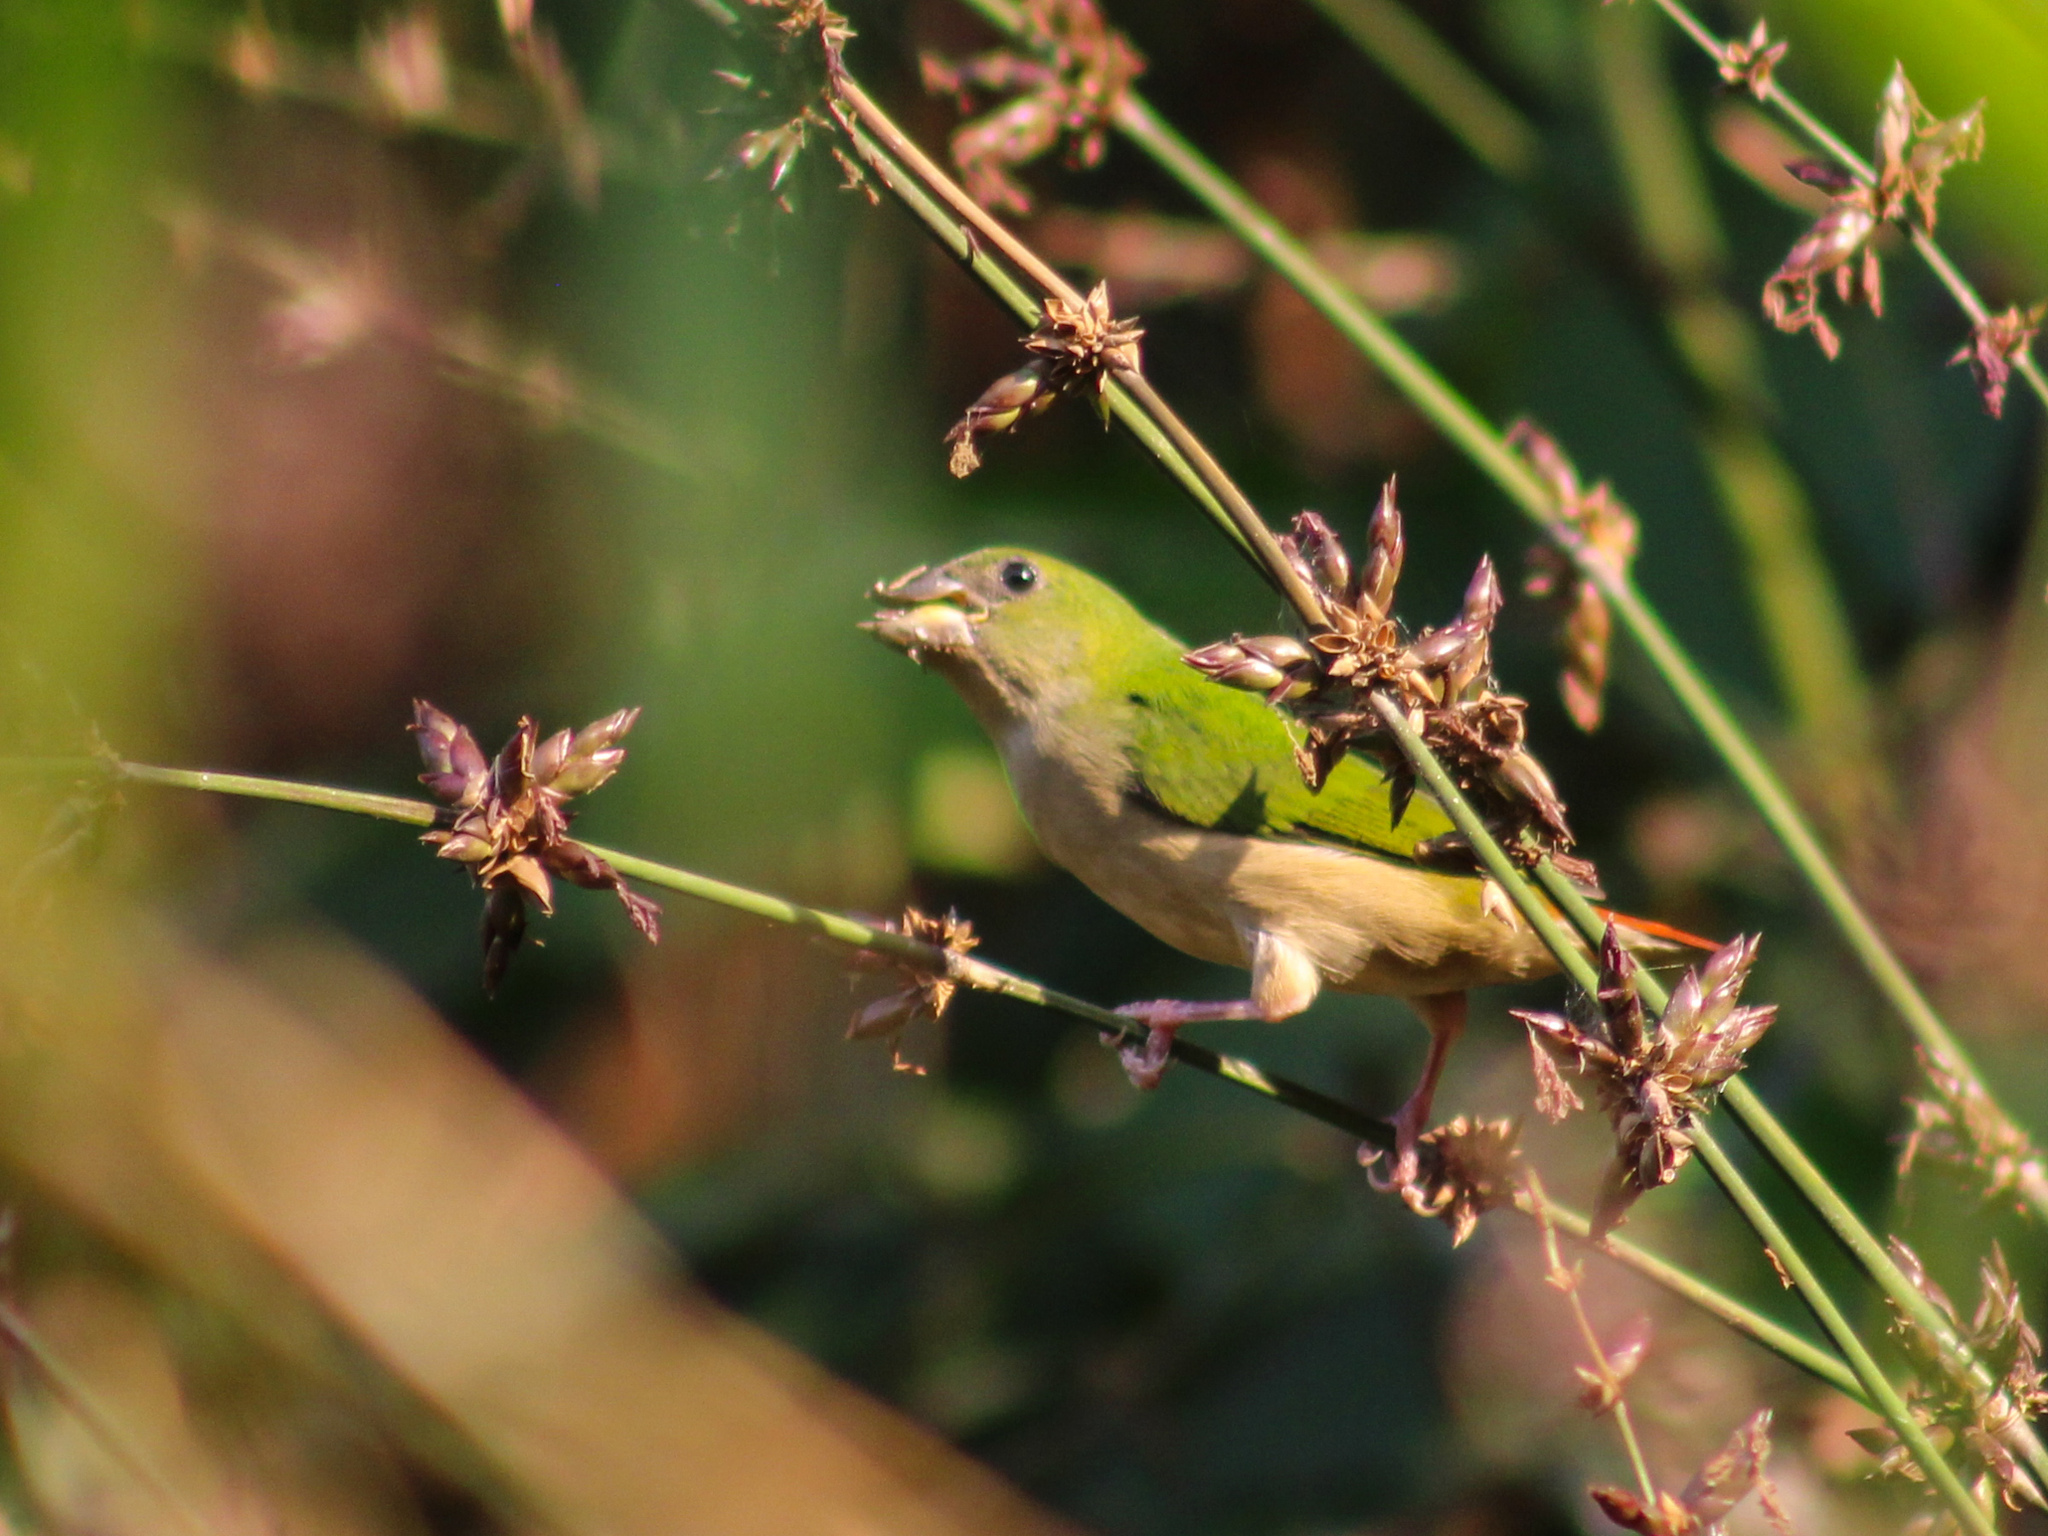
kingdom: Animalia
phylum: Chordata
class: Aves
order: Passeriformes
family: Estrildidae
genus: Erythrura
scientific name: Erythrura prasina
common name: Pin-tailed parrotfinch
